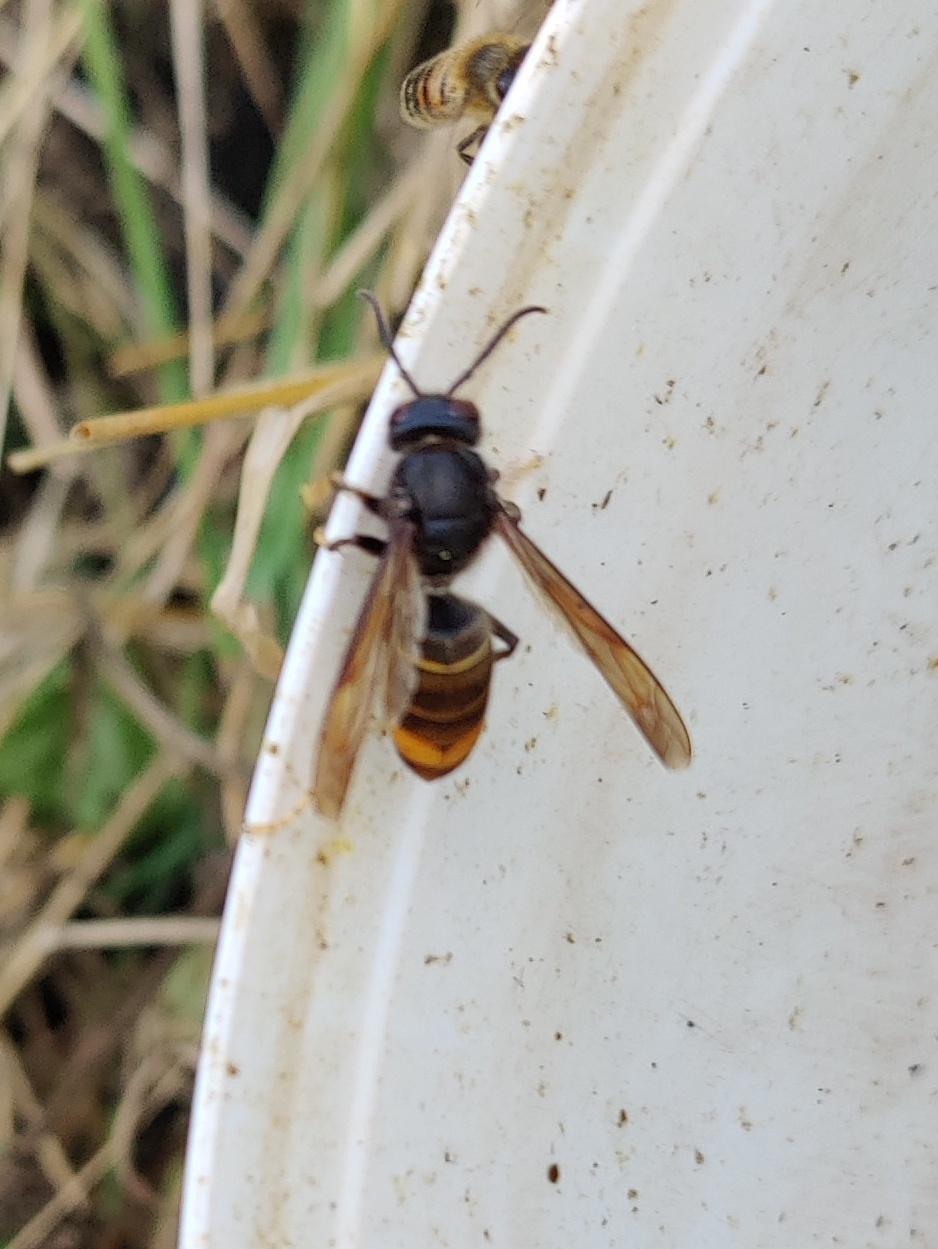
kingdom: Animalia
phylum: Arthropoda
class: Insecta
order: Hymenoptera
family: Vespidae
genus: Vespa
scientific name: Vespa velutina
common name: Asian hornet
